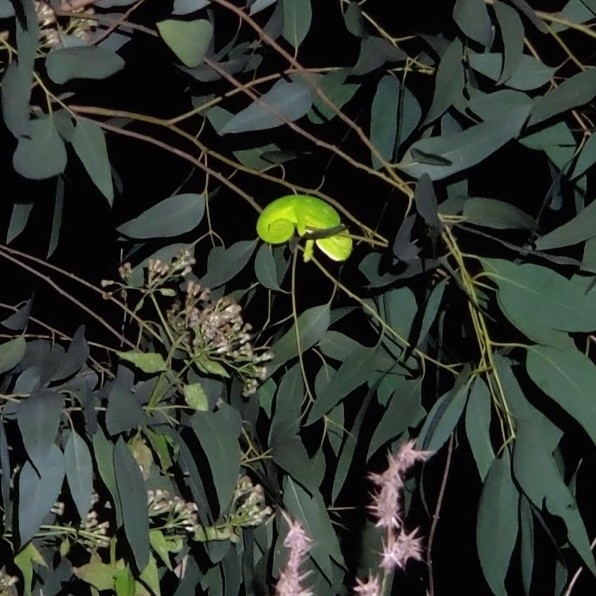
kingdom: Animalia
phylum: Chordata
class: Squamata
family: Chamaeleonidae
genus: Chamaeleo
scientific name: Chamaeleo zeylanicus
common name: Indian chameleon
